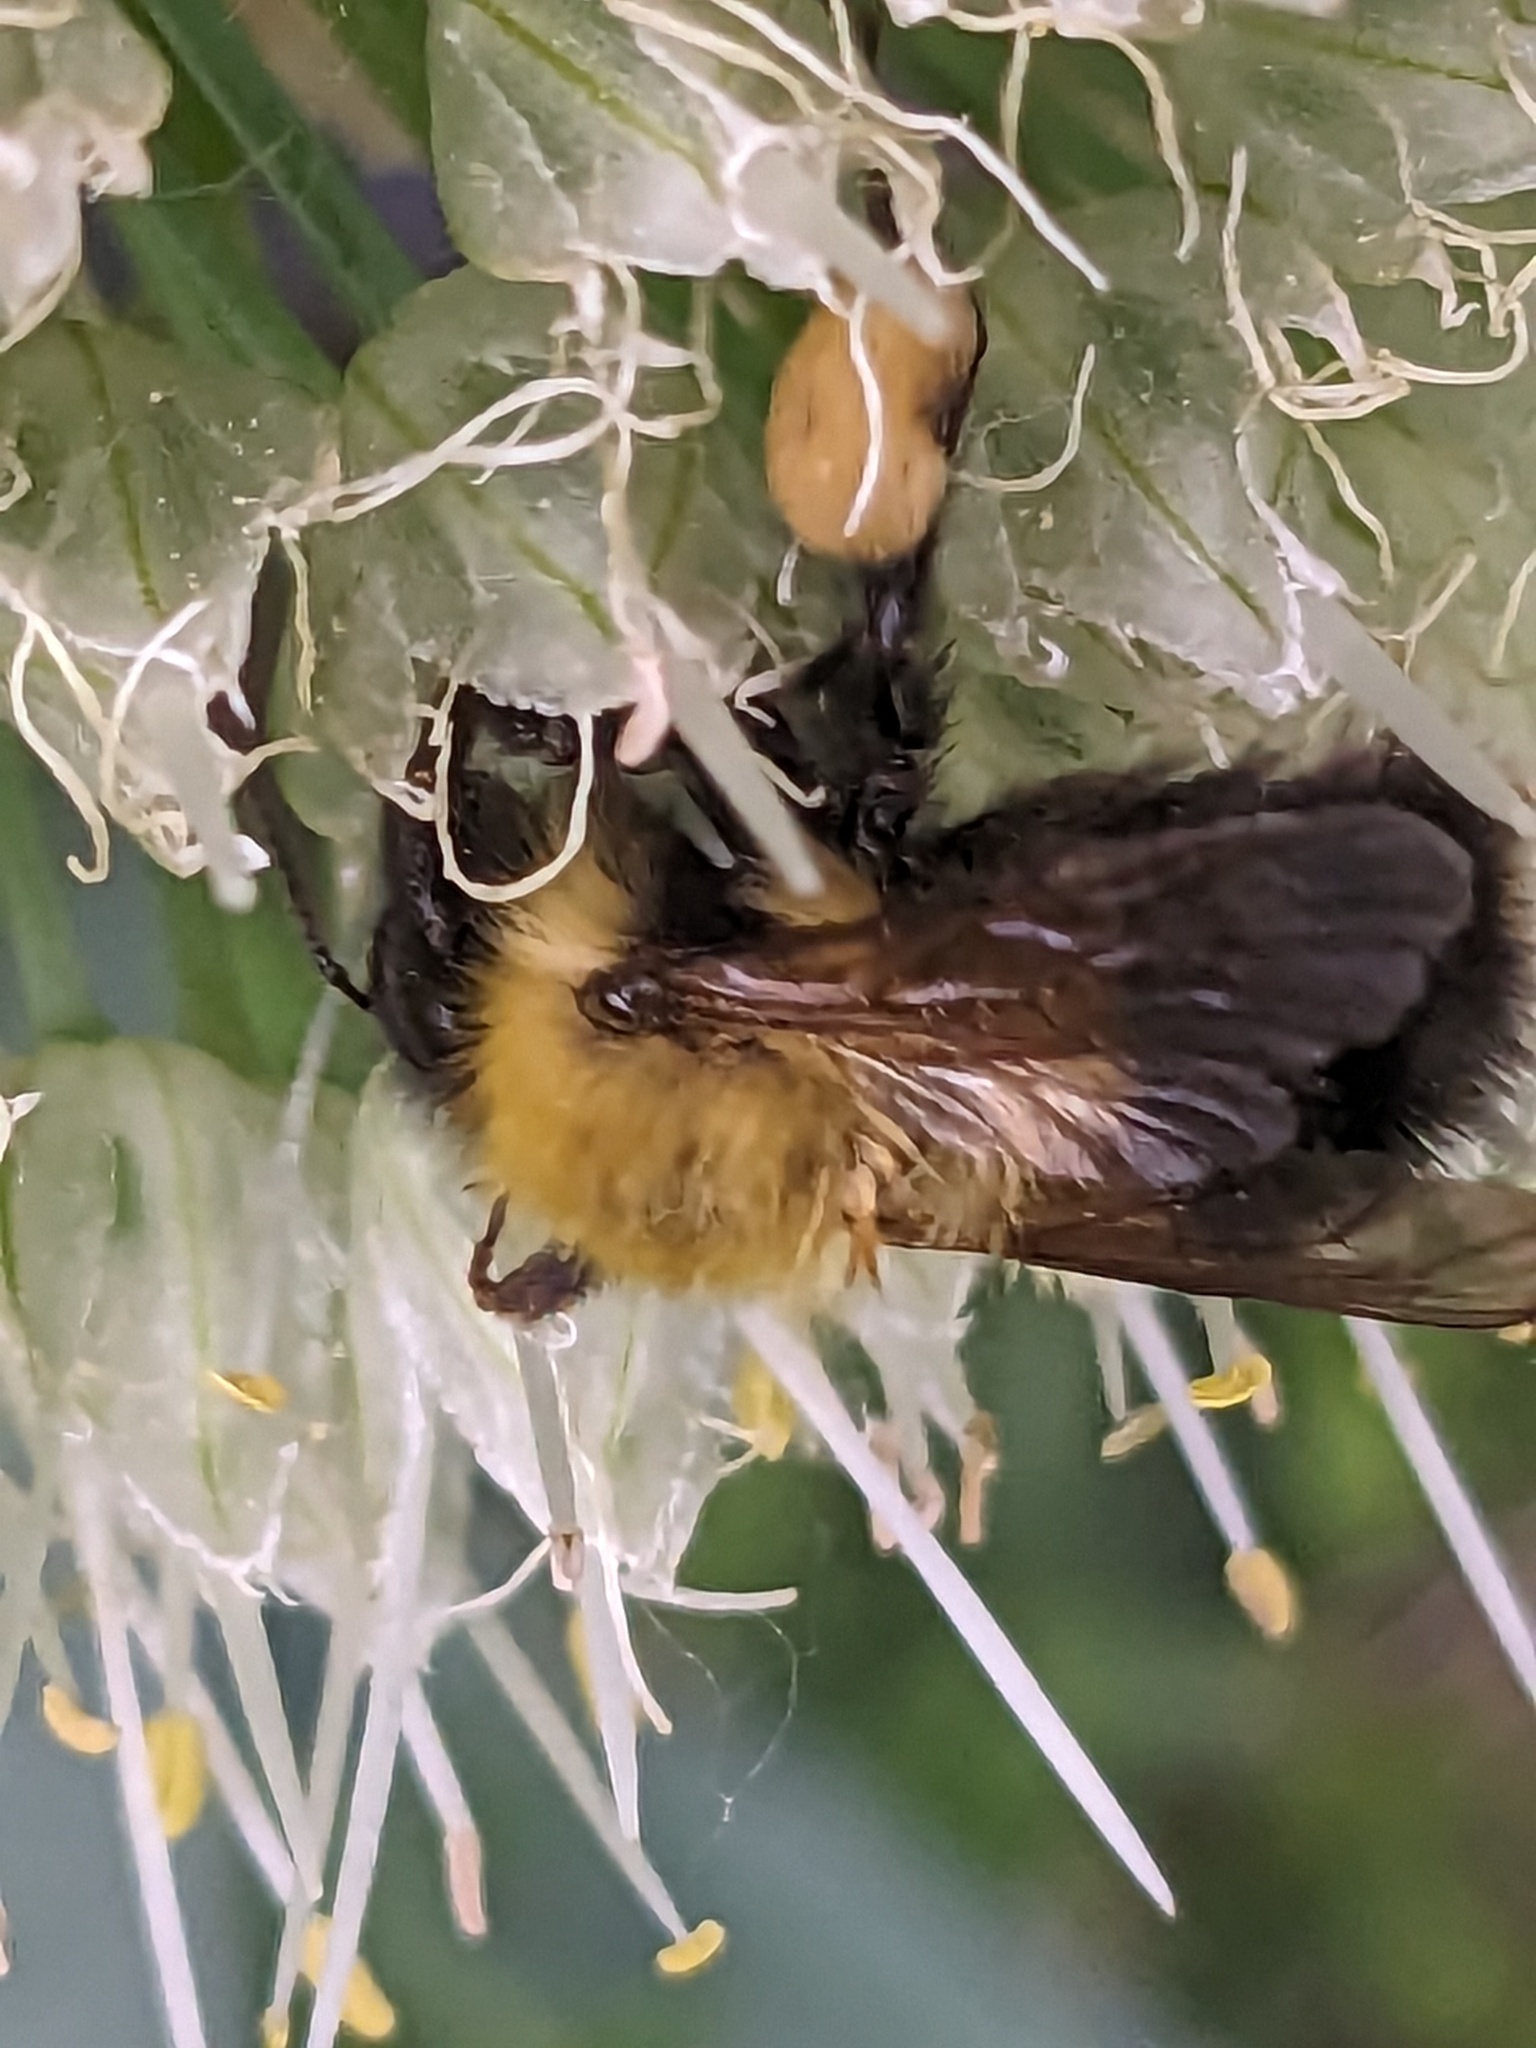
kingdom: Animalia
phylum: Arthropoda
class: Insecta
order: Hymenoptera
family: Apidae
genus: Bombus
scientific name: Bombus perplexus
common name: Confusing bumble bee
